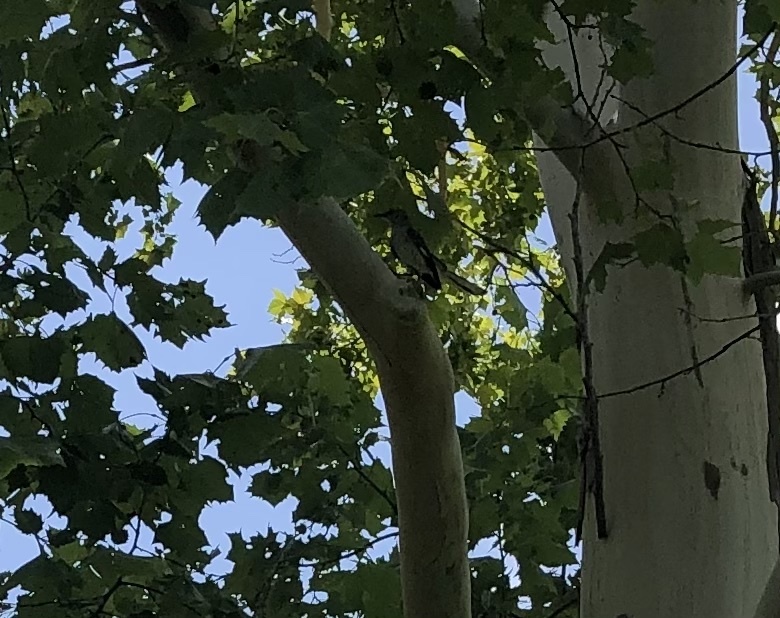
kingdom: Animalia
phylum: Chordata
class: Aves
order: Passeriformes
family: Mimidae
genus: Mimus
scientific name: Mimus polyglottos
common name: Northern mockingbird
